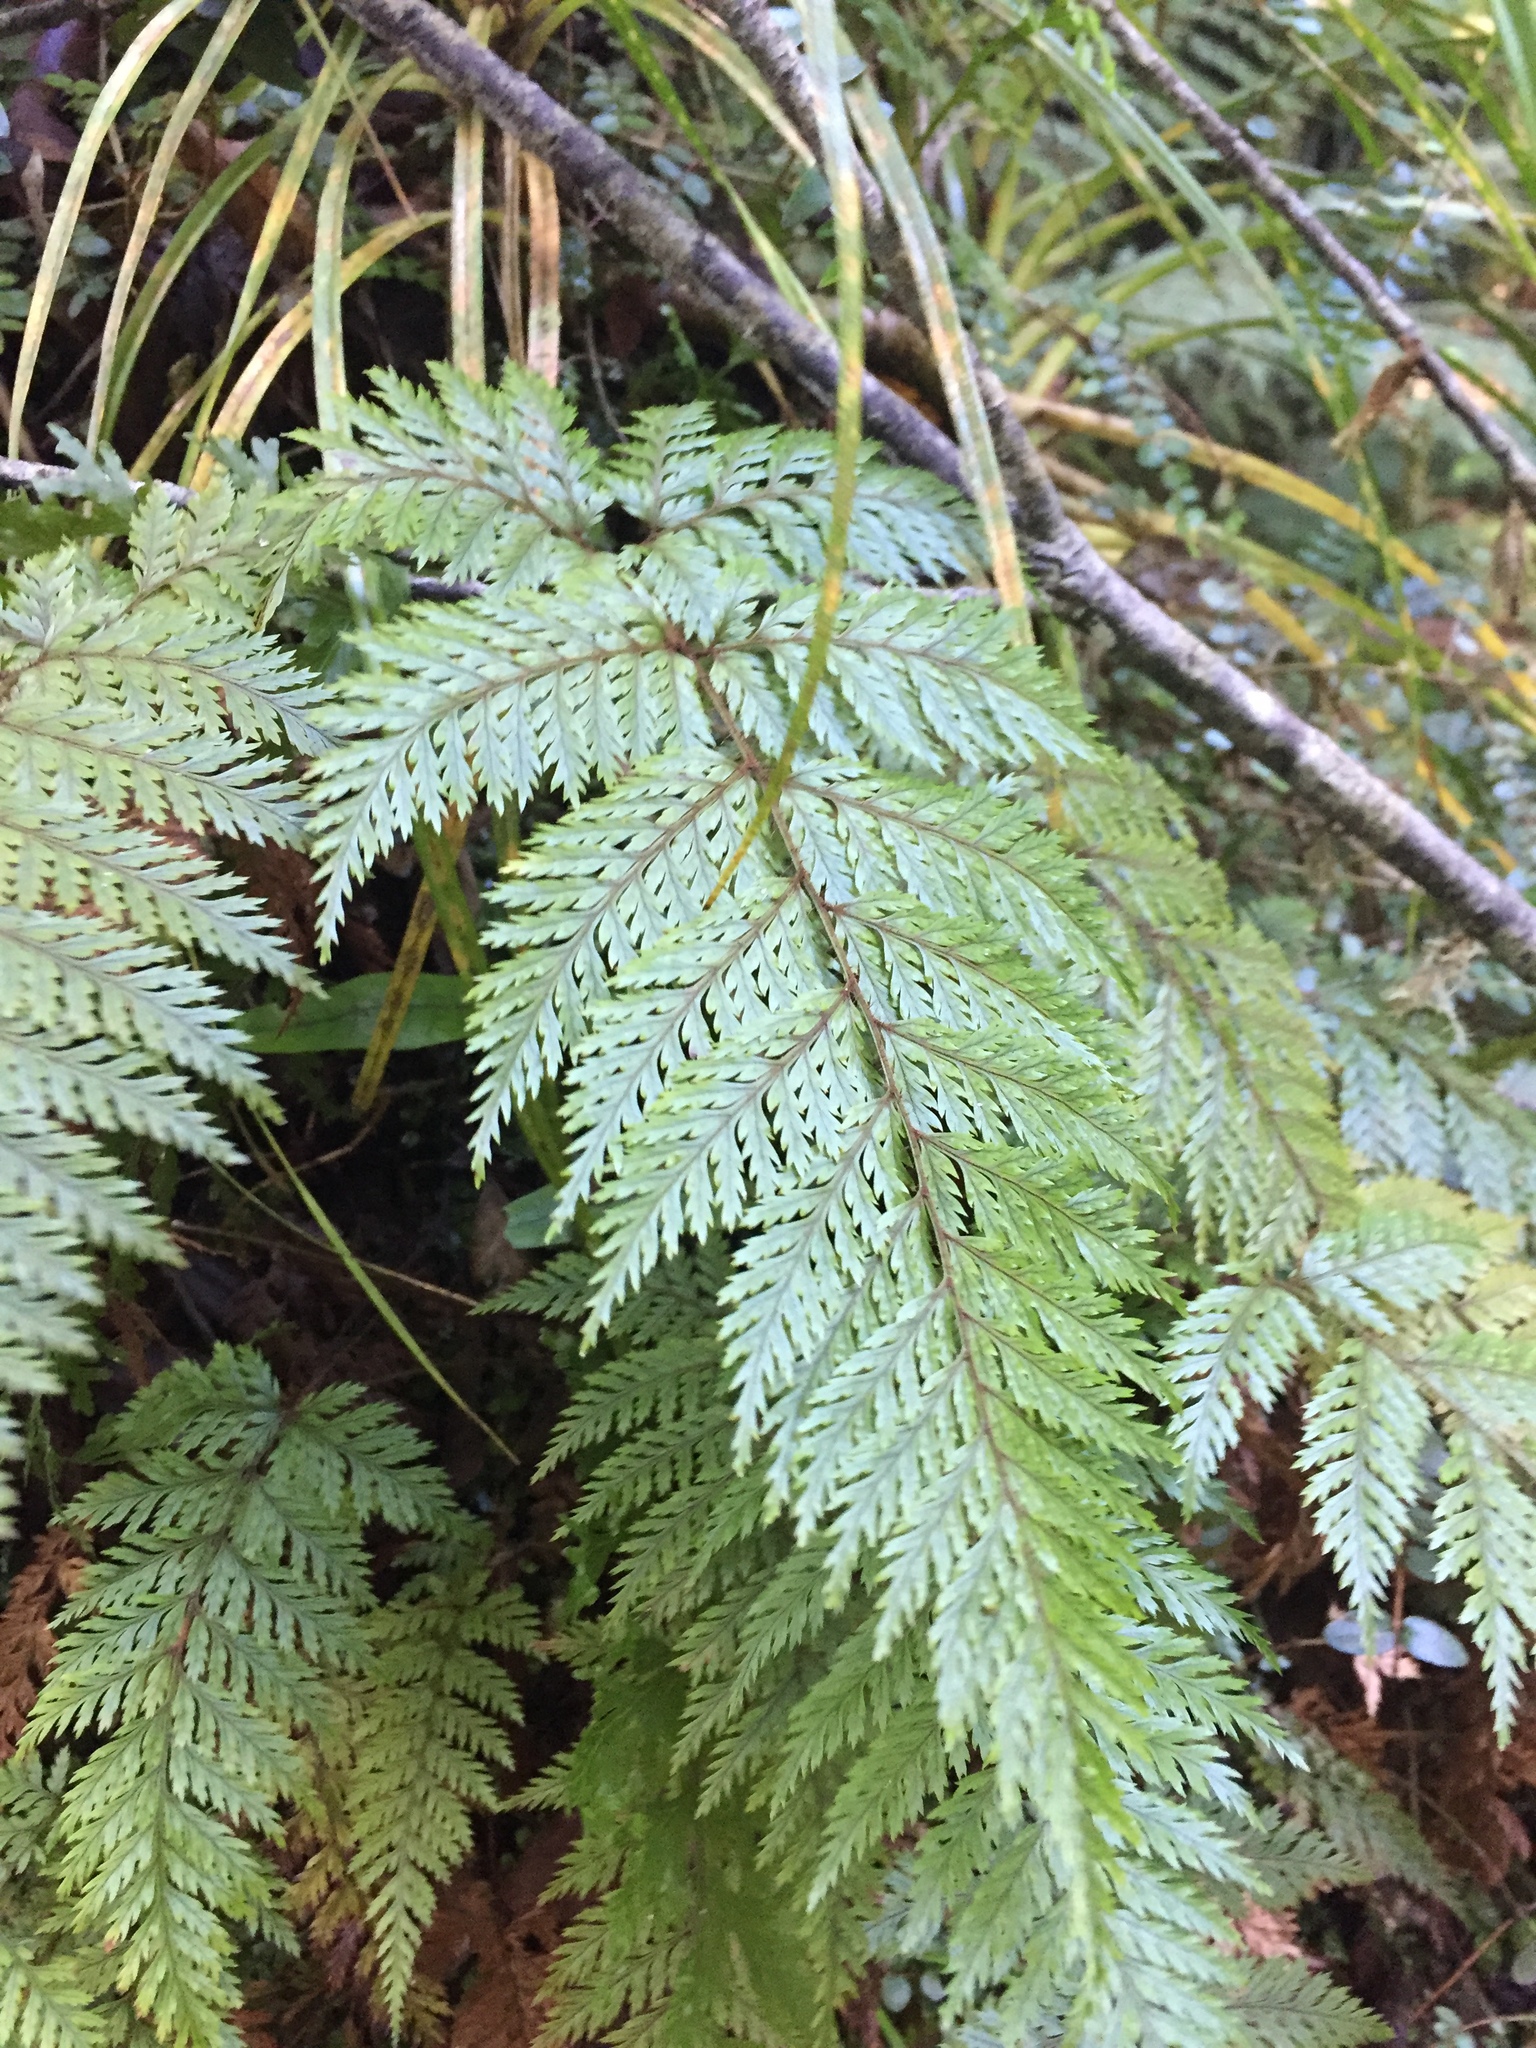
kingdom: Plantae
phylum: Tracheophyta
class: Polypodiopsida
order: Polypodiales
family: Dryopteridaceae
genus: Lastreopsis
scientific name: Lastreopsis hispida
